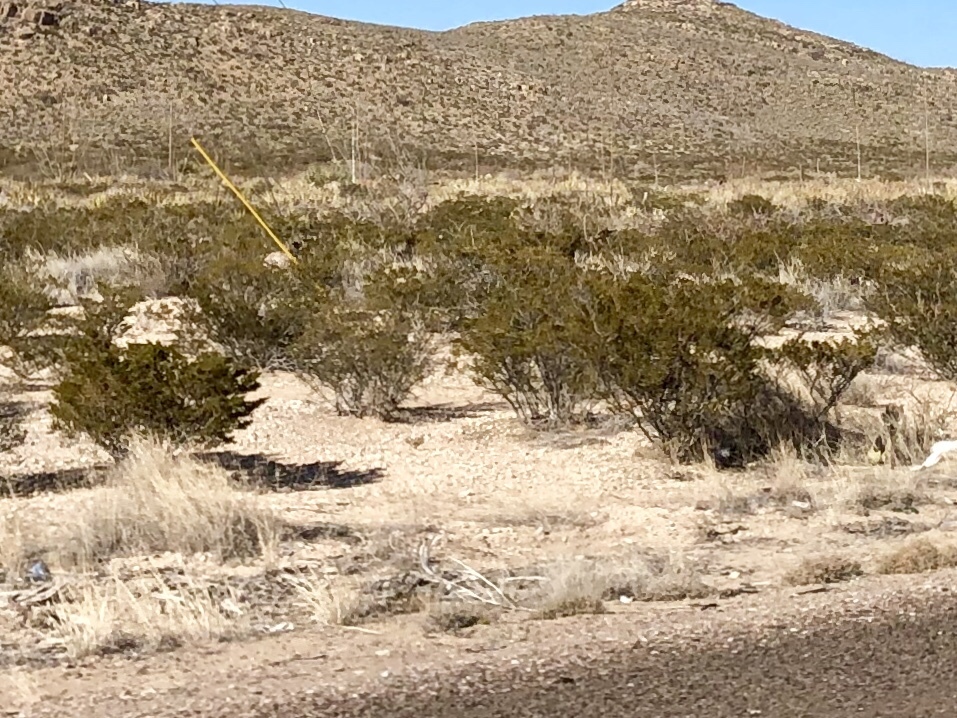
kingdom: Plantae
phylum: Tracheophyta
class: Magnoliopsida
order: Zygophyllales
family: Zygophyllaceae
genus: Larrea
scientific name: Larrea tridentata
